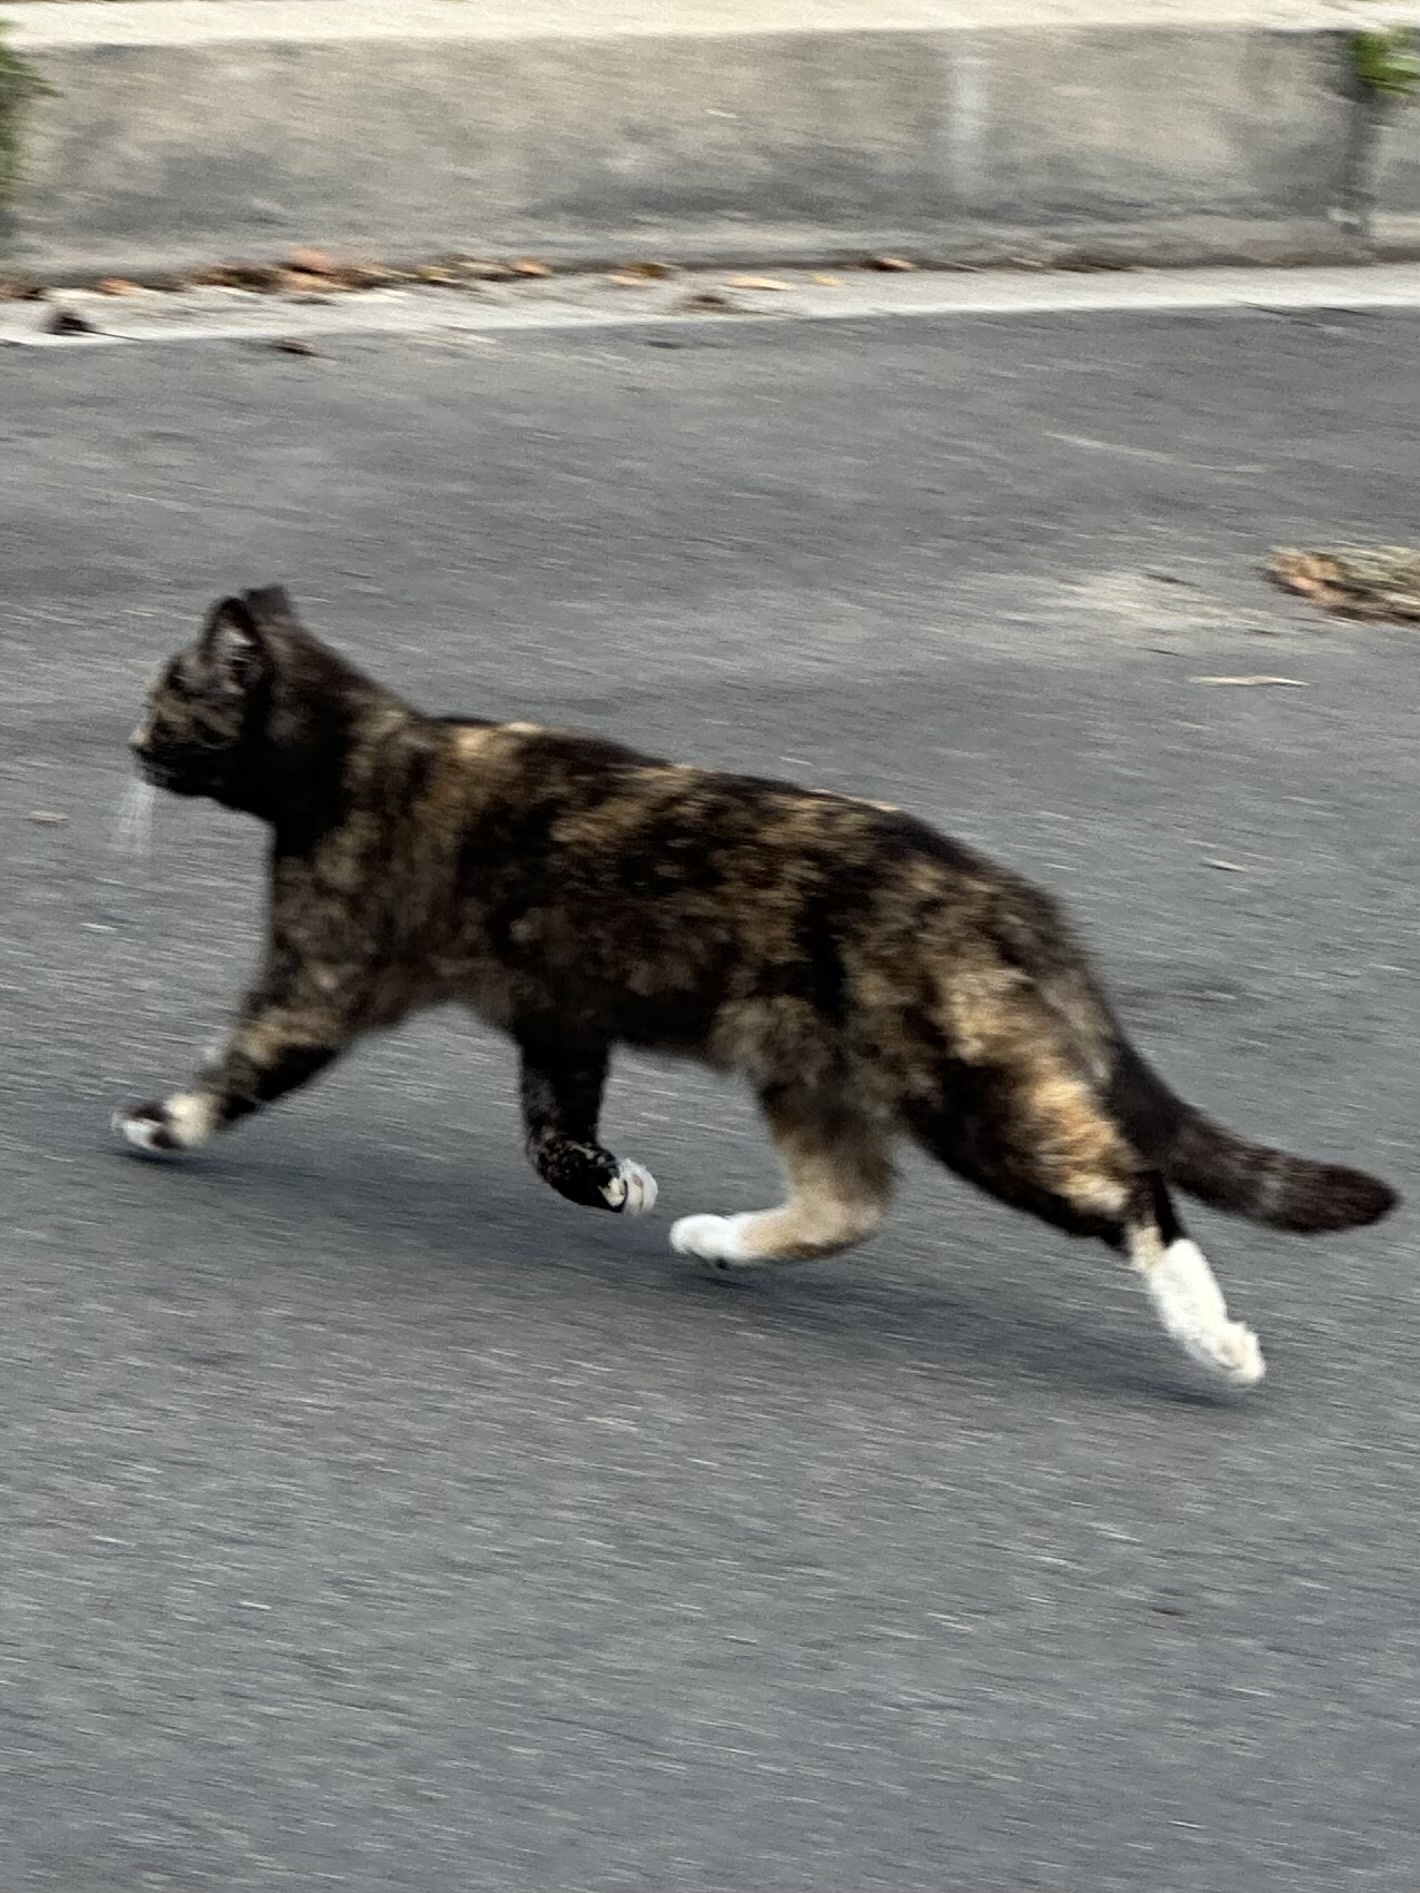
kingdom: Animalia
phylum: Chordata
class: Mammalia
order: Carnivora
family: Felidae
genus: Felis
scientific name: Felis catus
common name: Domestic cat
